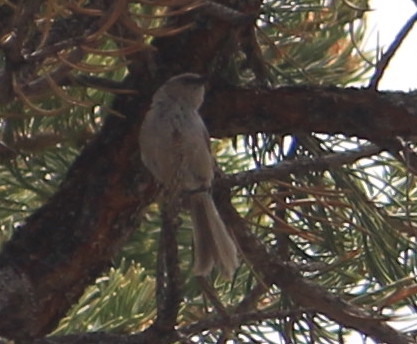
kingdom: Animalia
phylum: Chordata
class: Aves
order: Passeriformes
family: Aegithalidae
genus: Psaltriparus
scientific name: Psaltriparus minimus
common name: American bushtit
